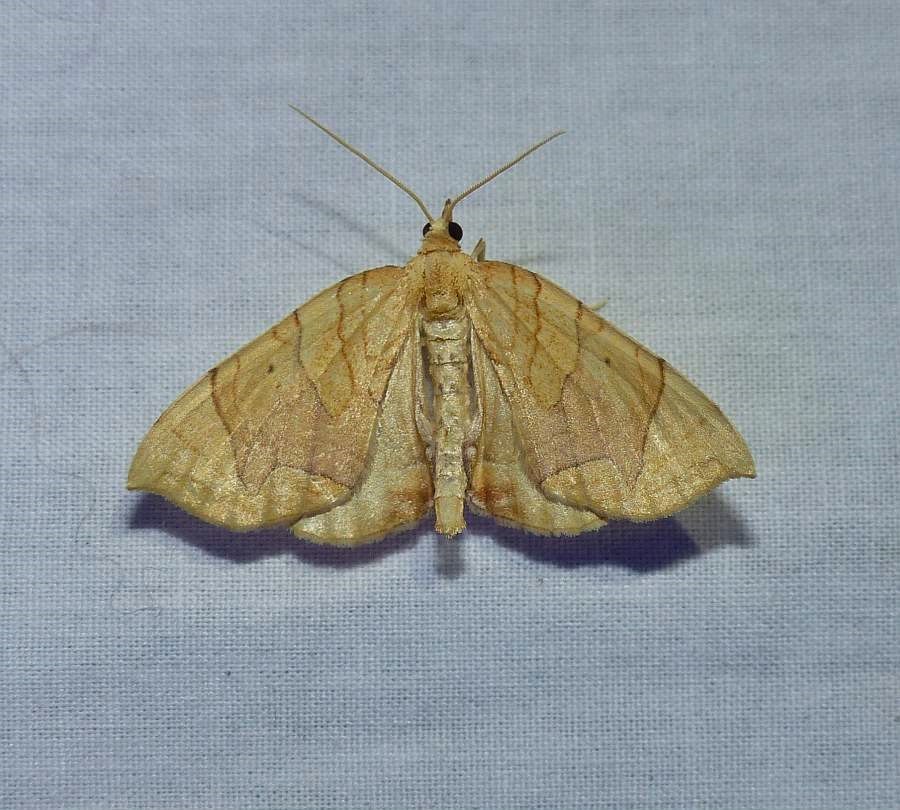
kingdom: Animalia
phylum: Arthropoda
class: Insecta
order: Lepidoptera
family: Geometridae
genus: Eulithis
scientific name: Eulithis
